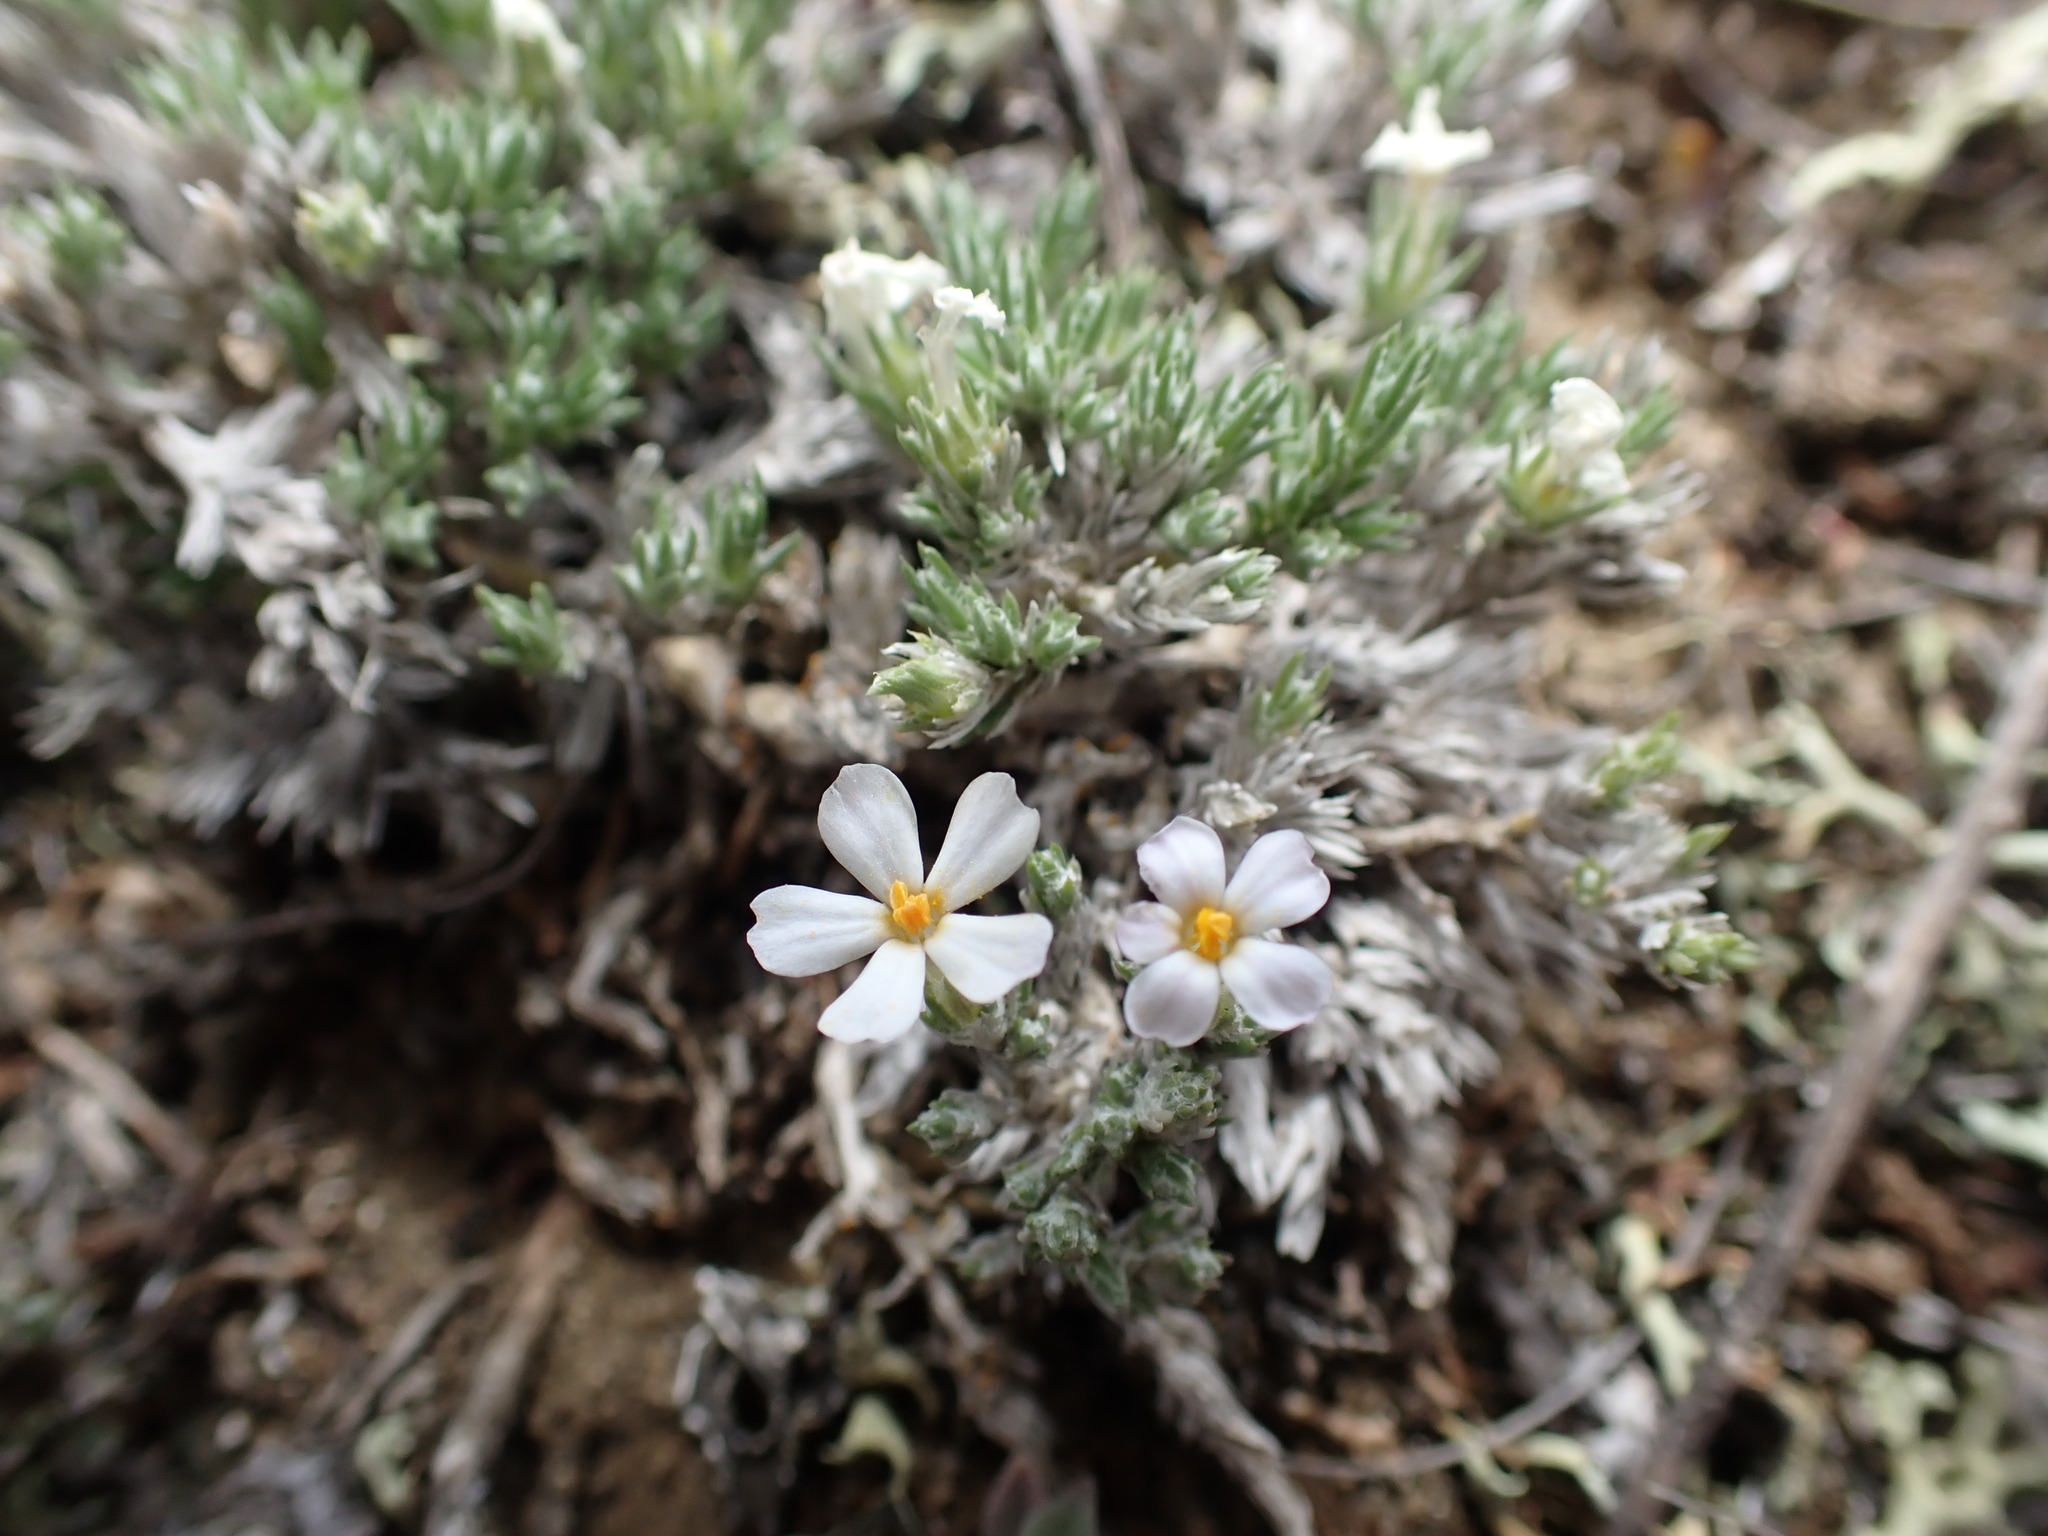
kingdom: Plantae
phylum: Tracheophyta
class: Magnoliopsida
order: Ericales
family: Polemoniaceae
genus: Phlox
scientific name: Phlox hoodii
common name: Moss phlox
